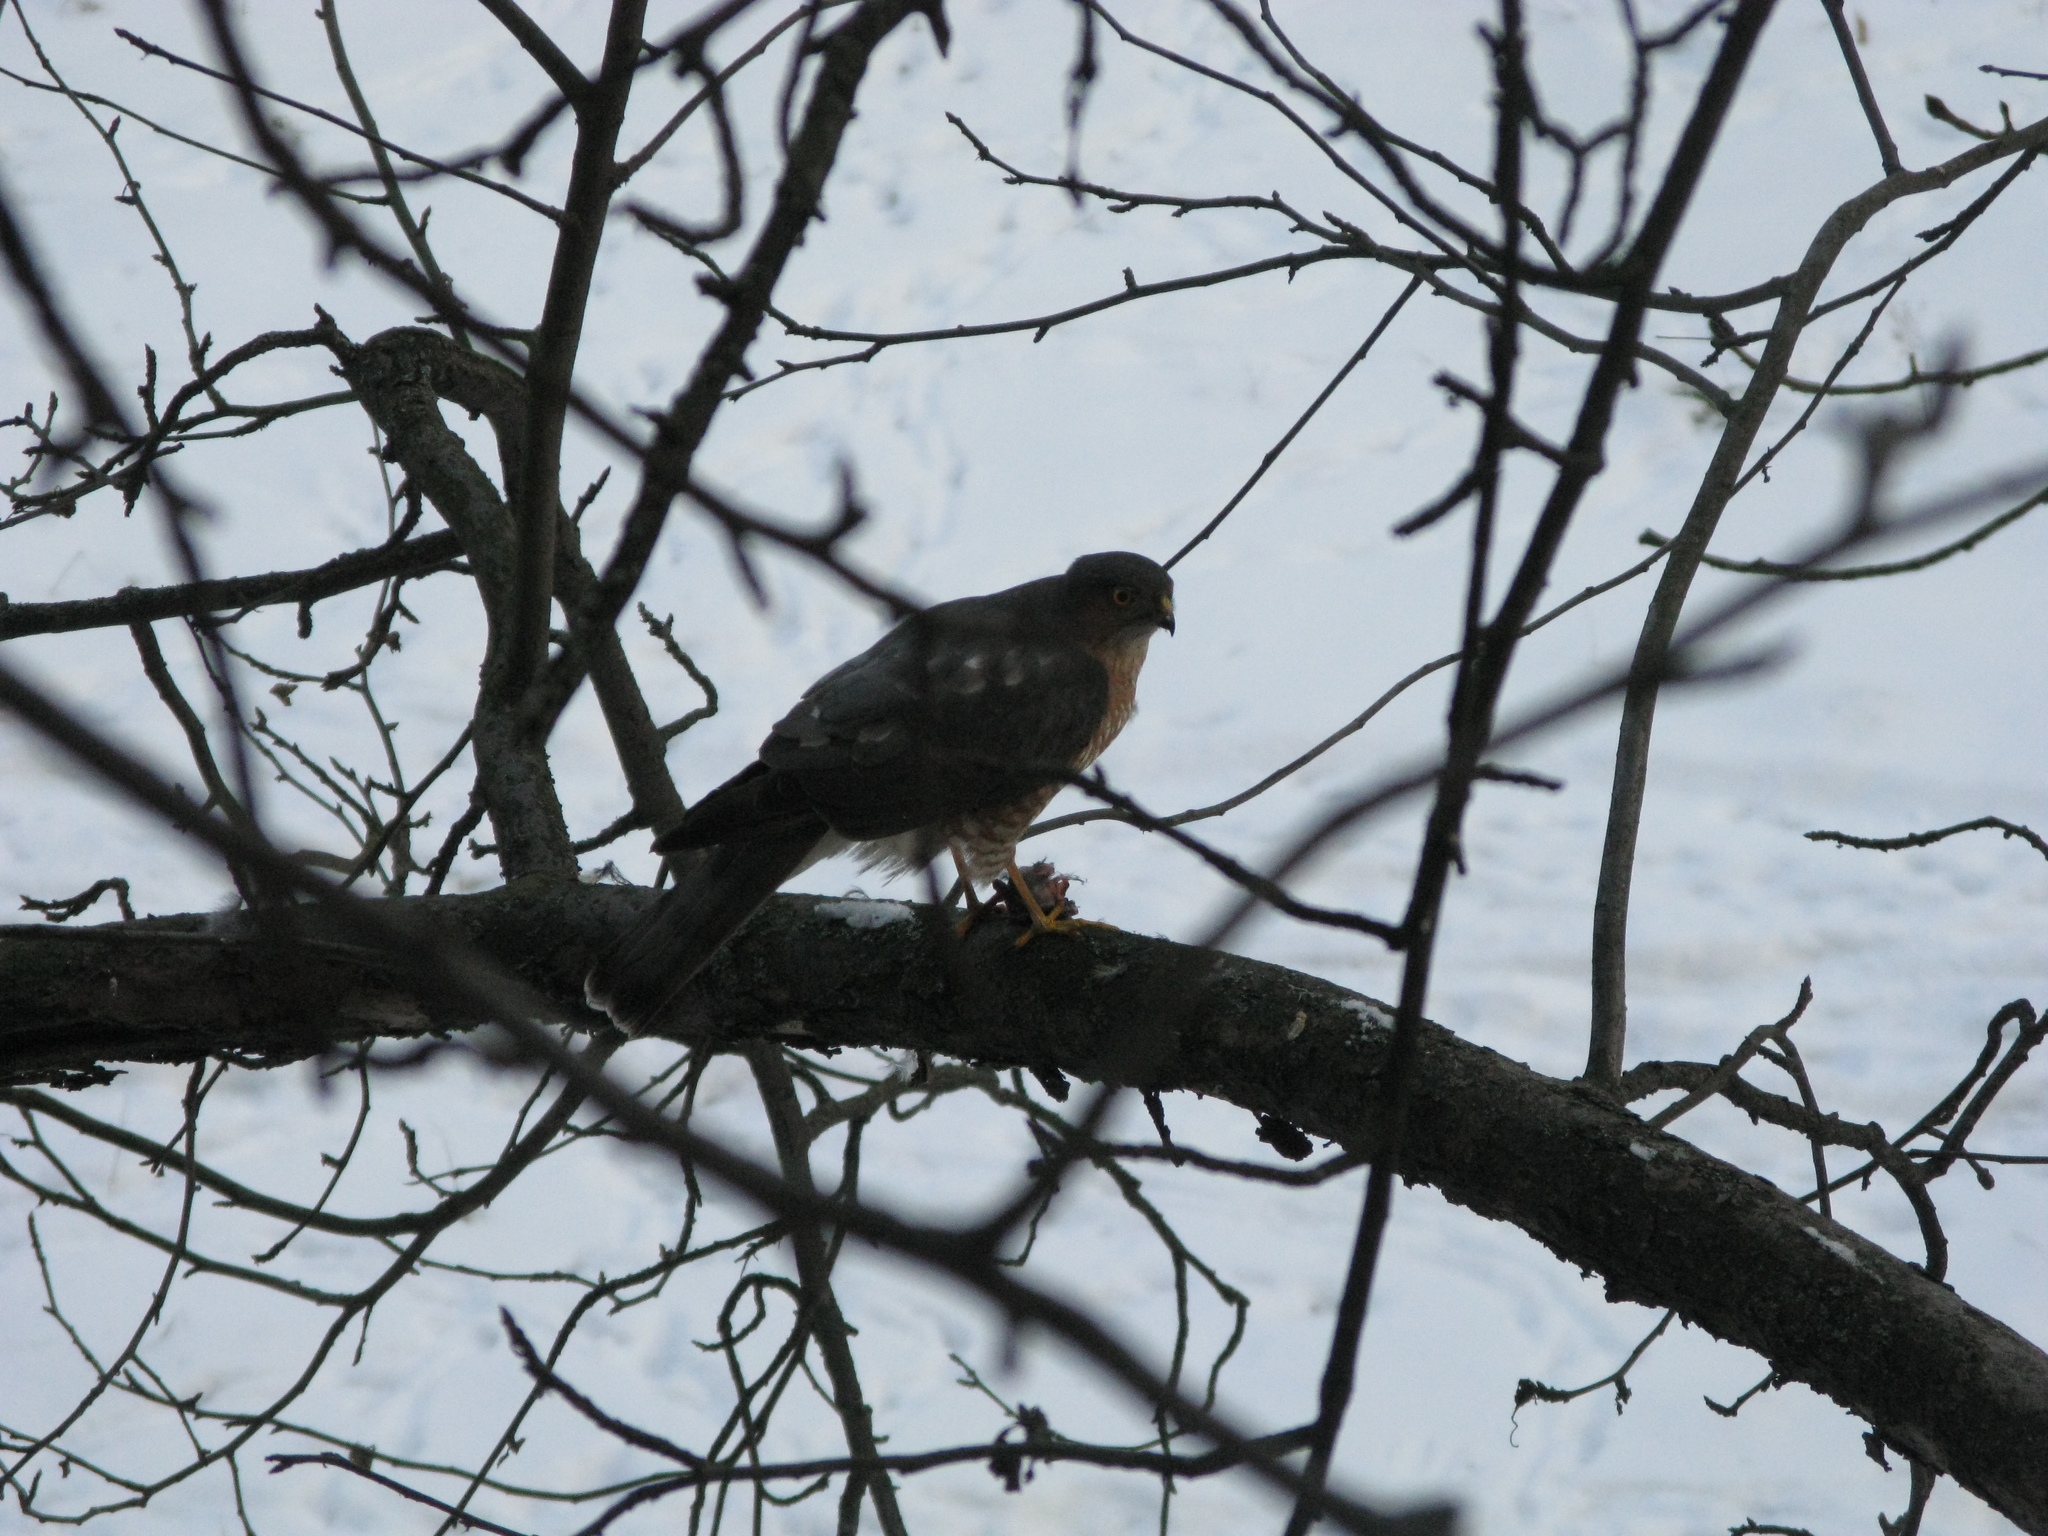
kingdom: Animalia
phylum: Chordata
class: Aves
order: Accipitriformes
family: Accipitridae
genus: Accipiter
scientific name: Accipiter nisus
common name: Eurasian sparrowhawk
